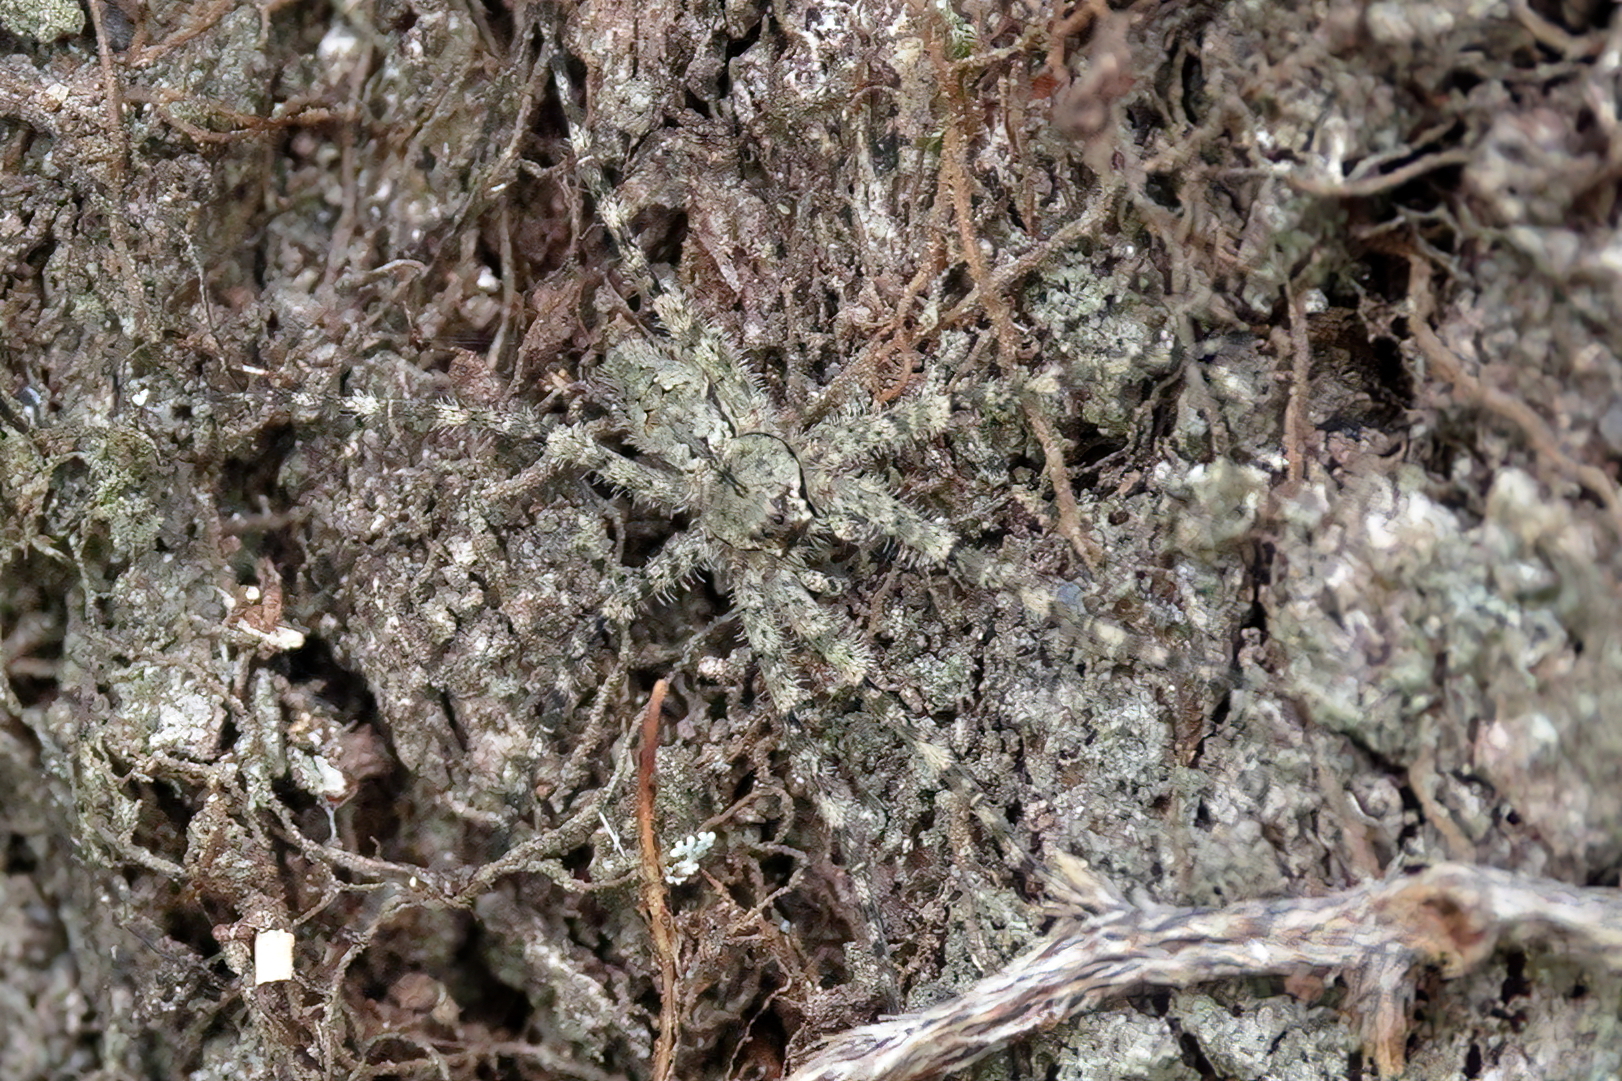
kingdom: Animalia
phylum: Arthropoda
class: Arachnida
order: Araneae
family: Pisauridae
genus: Dolomedes
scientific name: Dolomedes albineus
